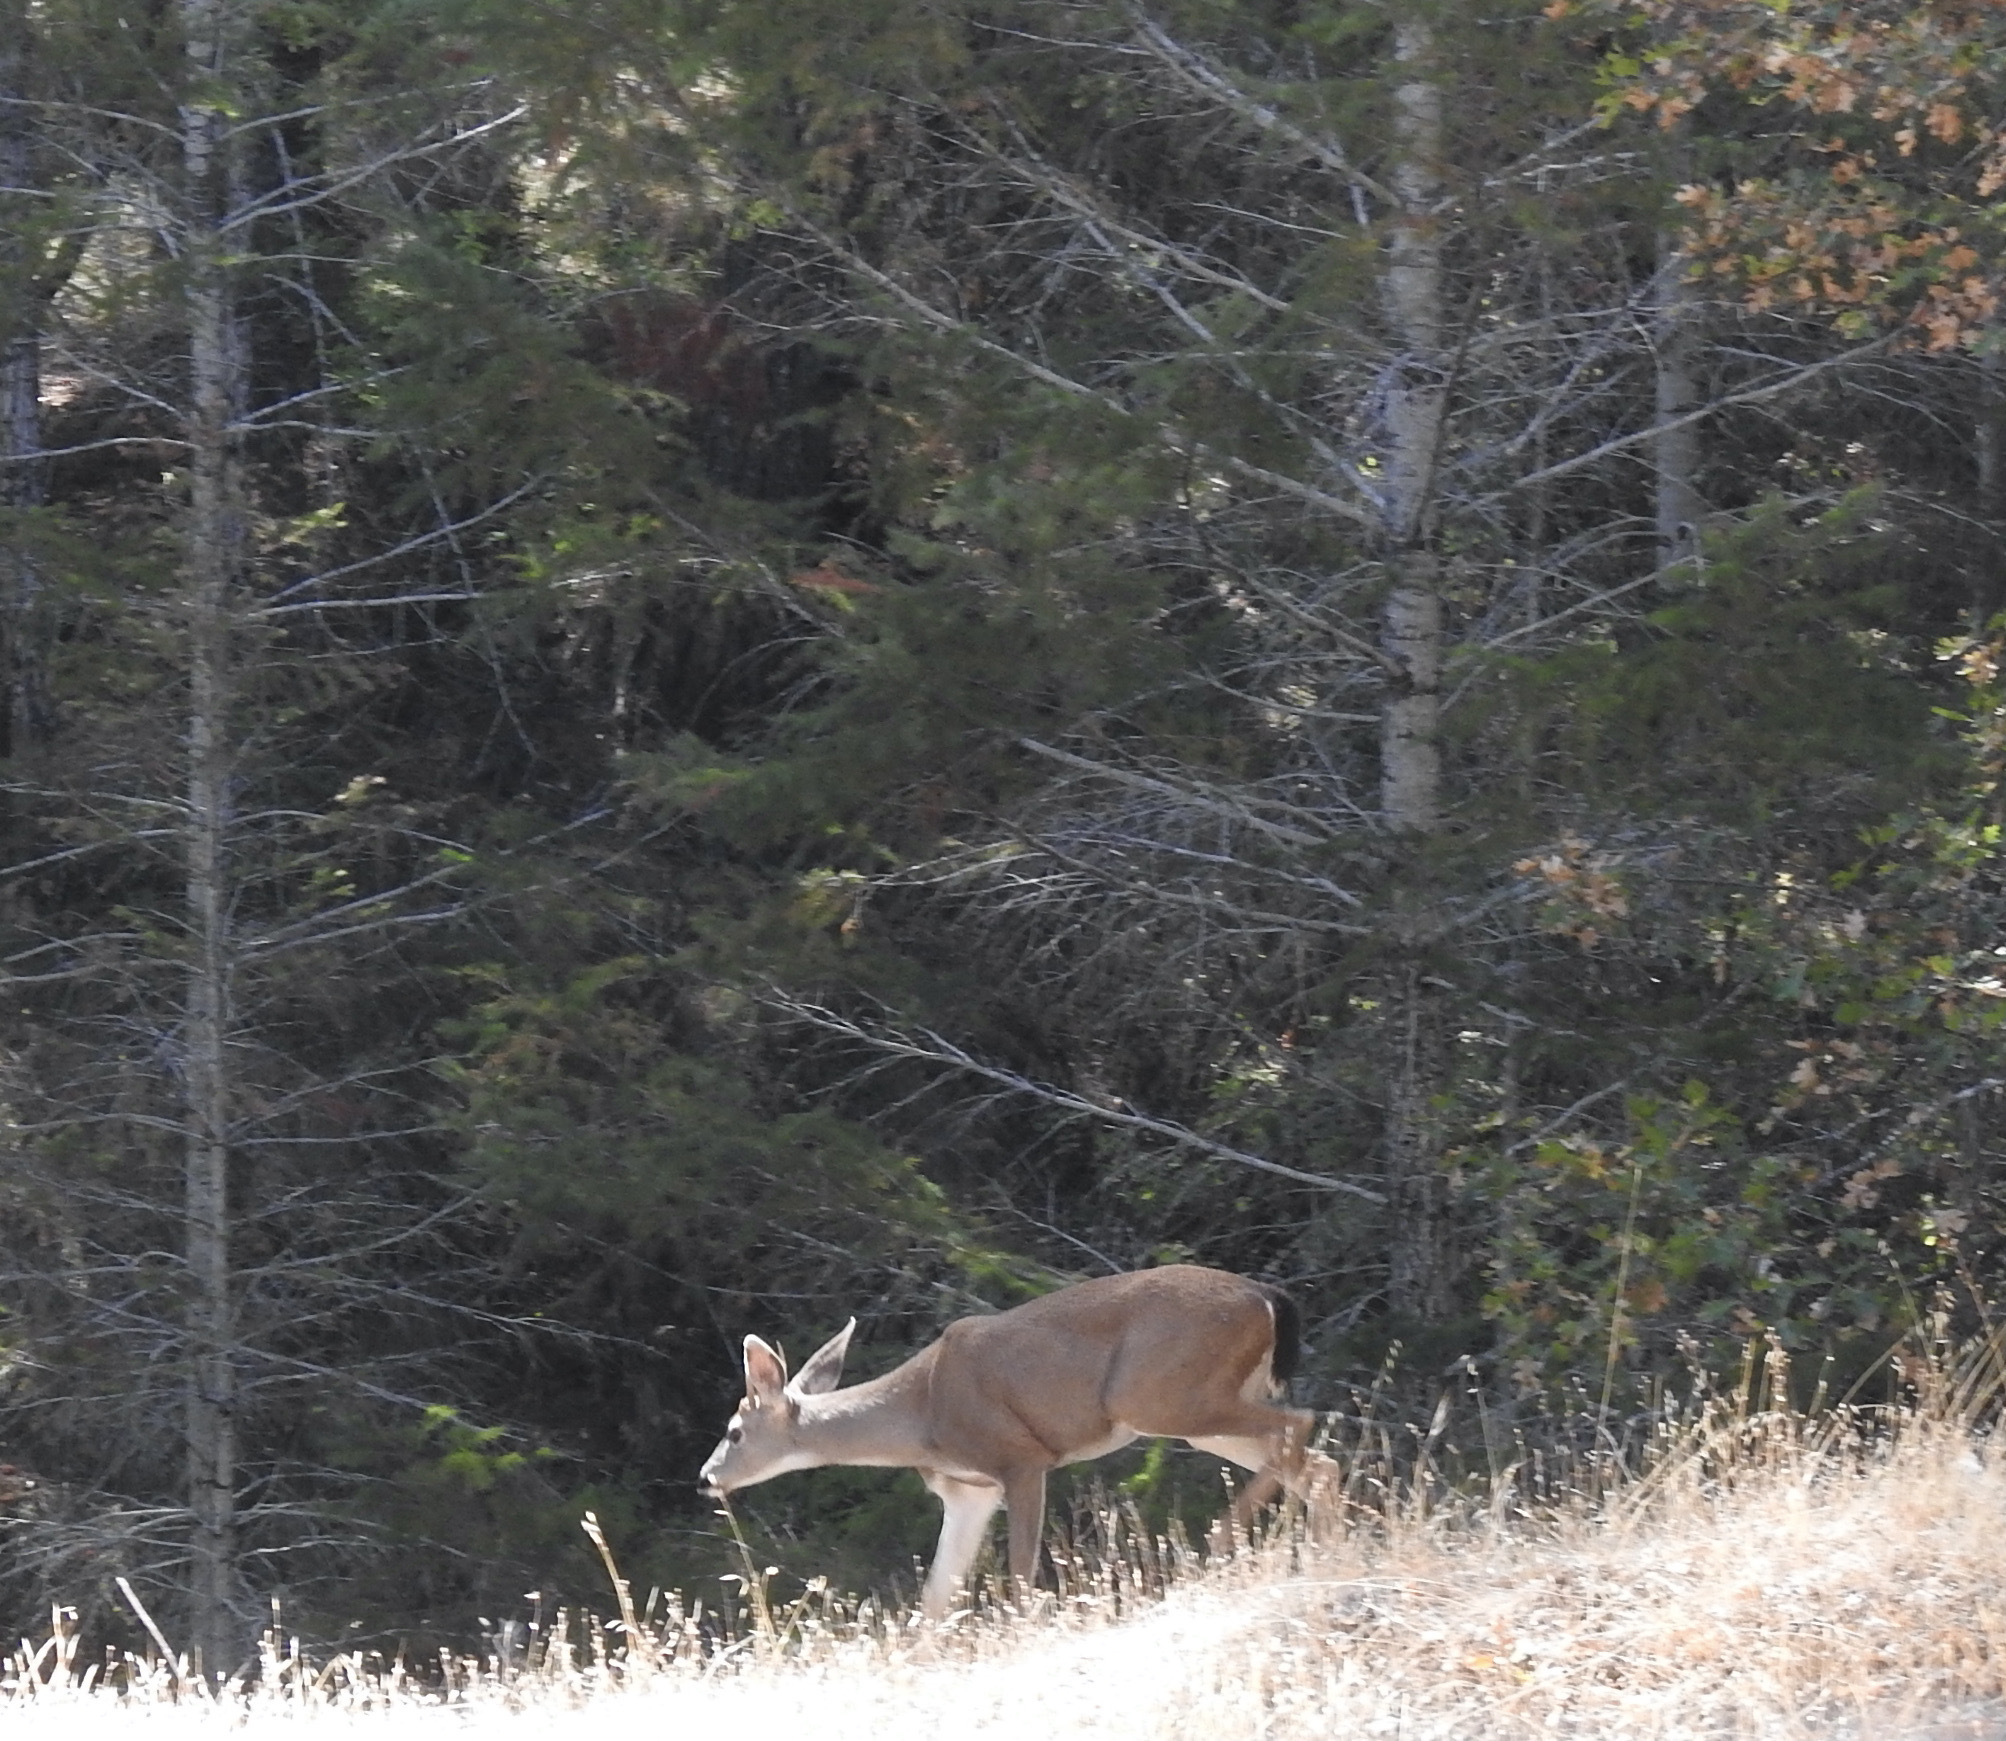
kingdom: Animalia
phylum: Chordata
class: Mammalia
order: Artiodactyla
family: Cervidae
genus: Odocoileus
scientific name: Odocoileus hemionus
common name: Mule deer
